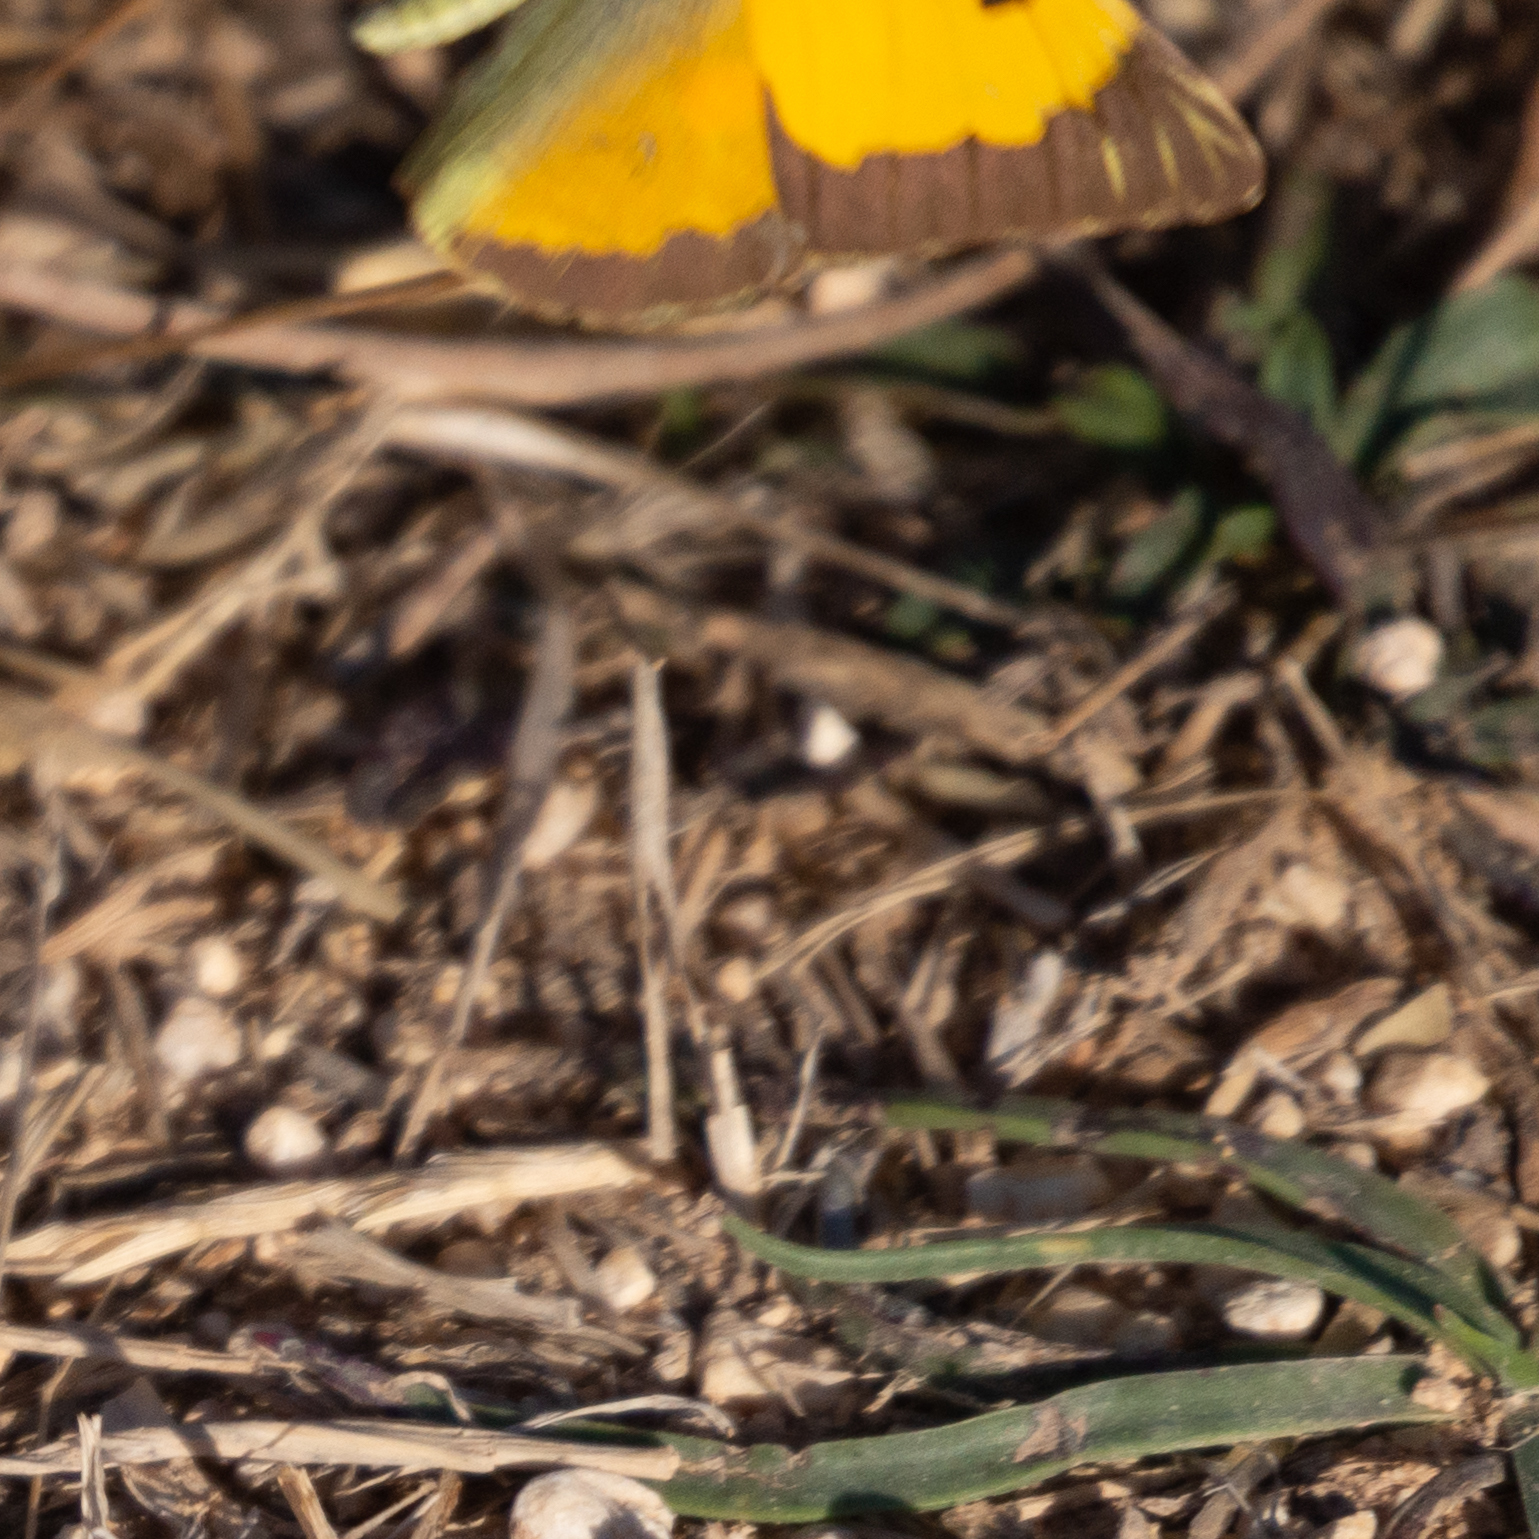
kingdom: Animalia
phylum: Arthropoda
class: Insecta
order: Lepidoptera
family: Pieridae
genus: Colias
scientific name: Colias croceus
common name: Clouded yellow
